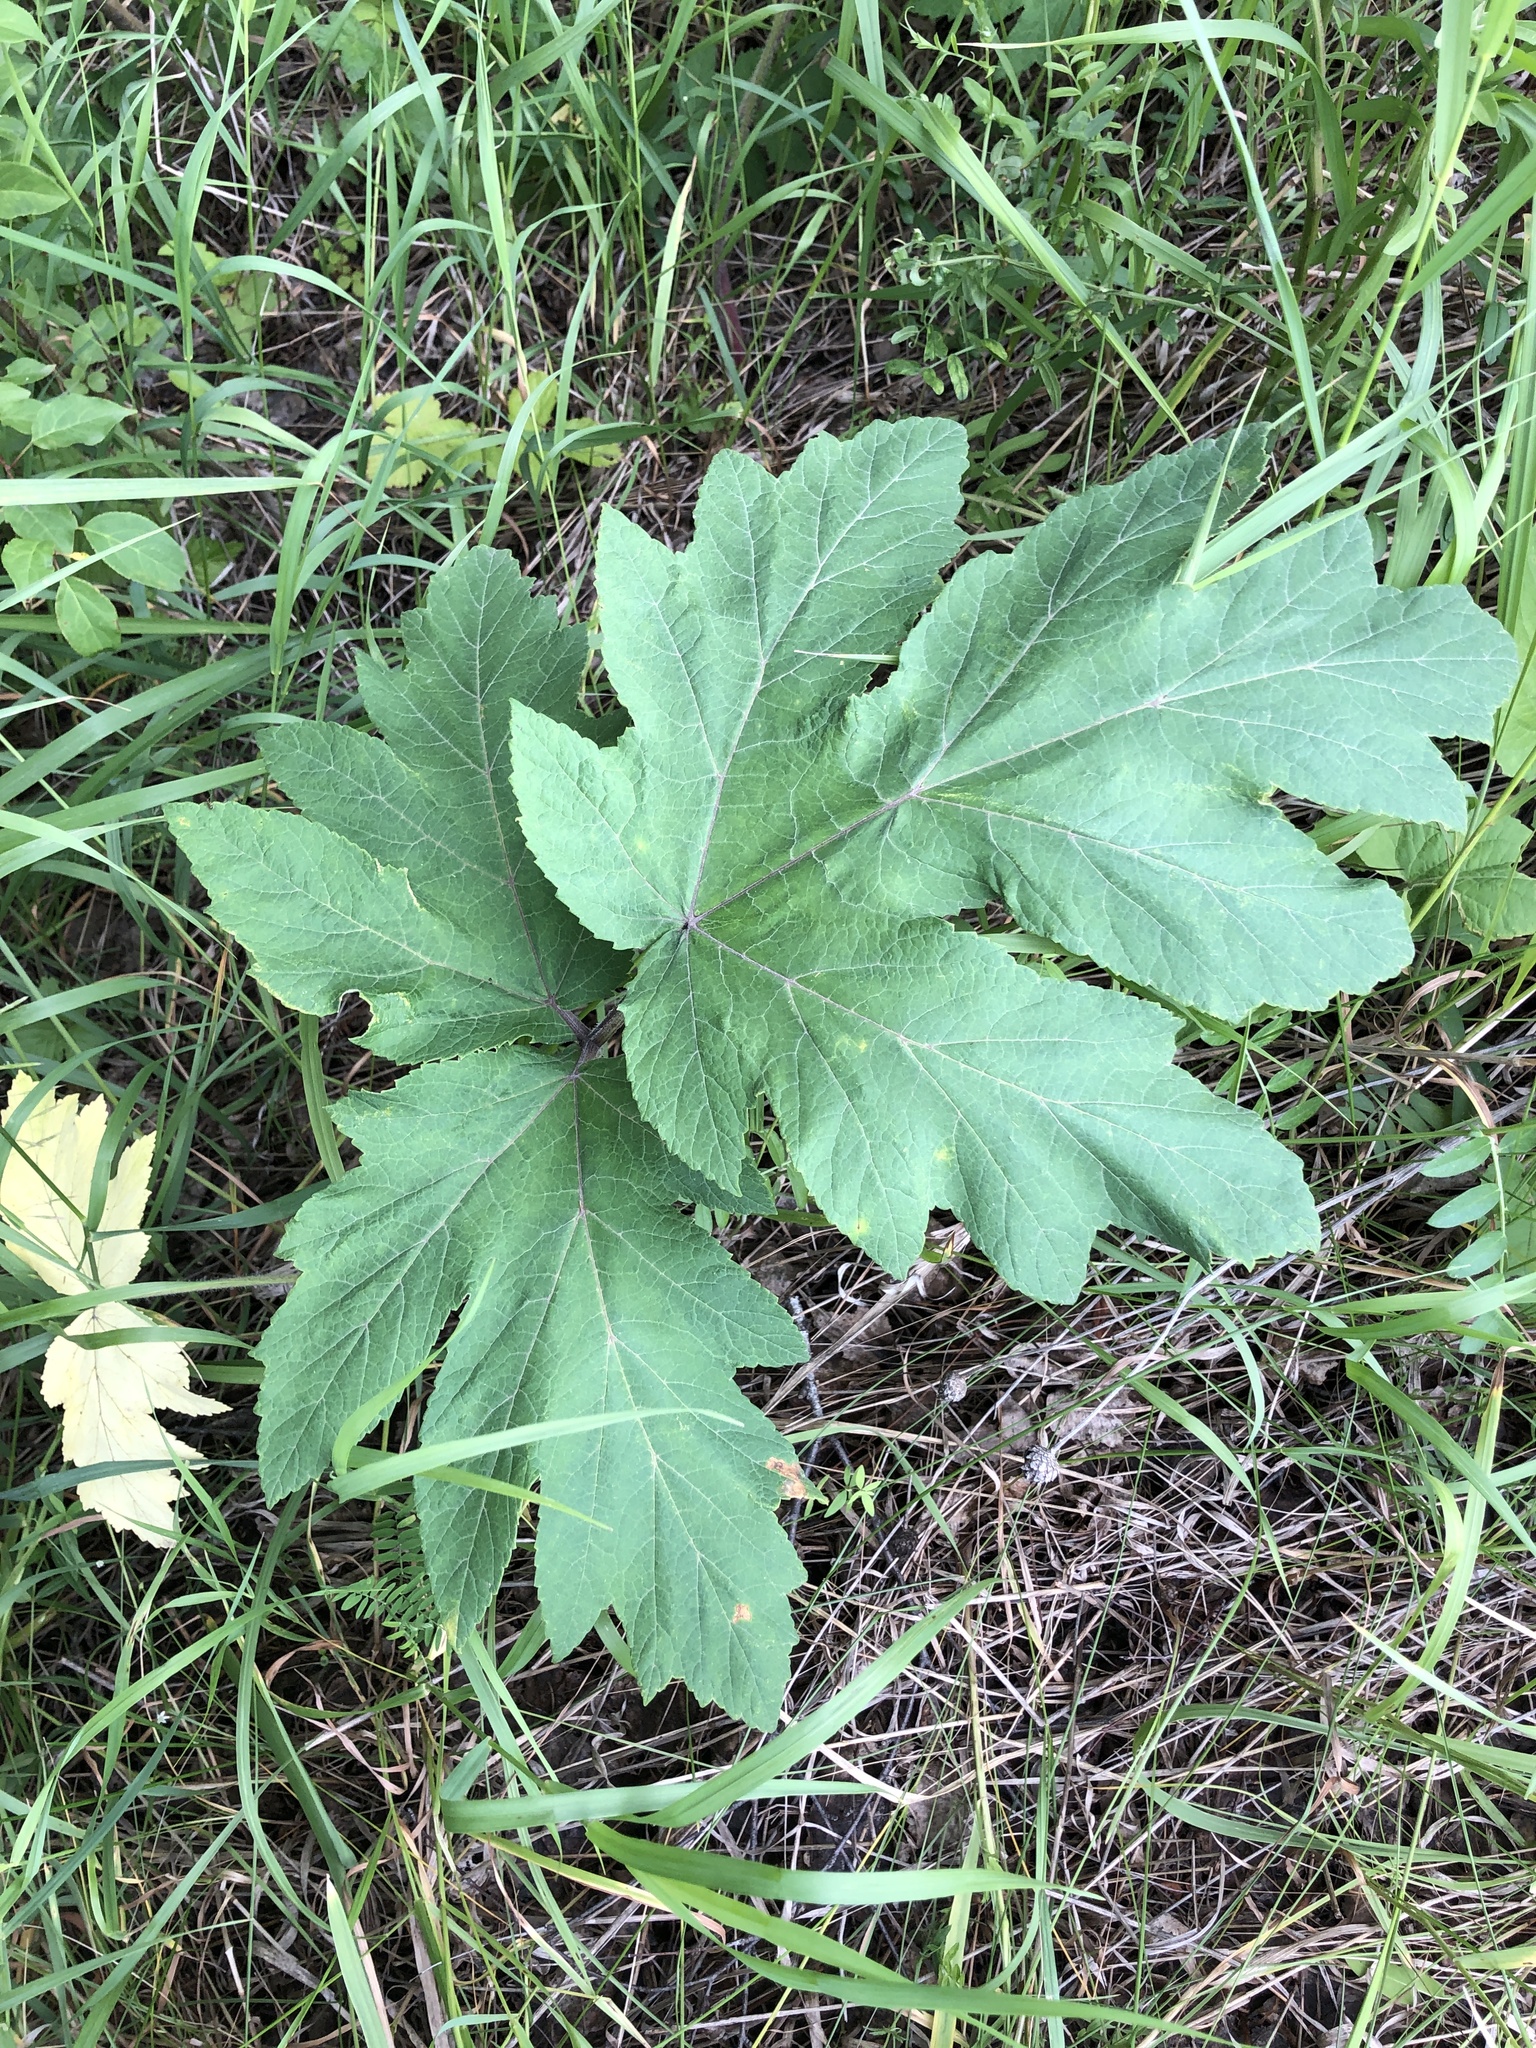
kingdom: Plantae
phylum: Tracheophyta
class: Magnoliopsida
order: Apiales
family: Apiaceae
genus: Heracleum
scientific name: Heracleum dissectum
